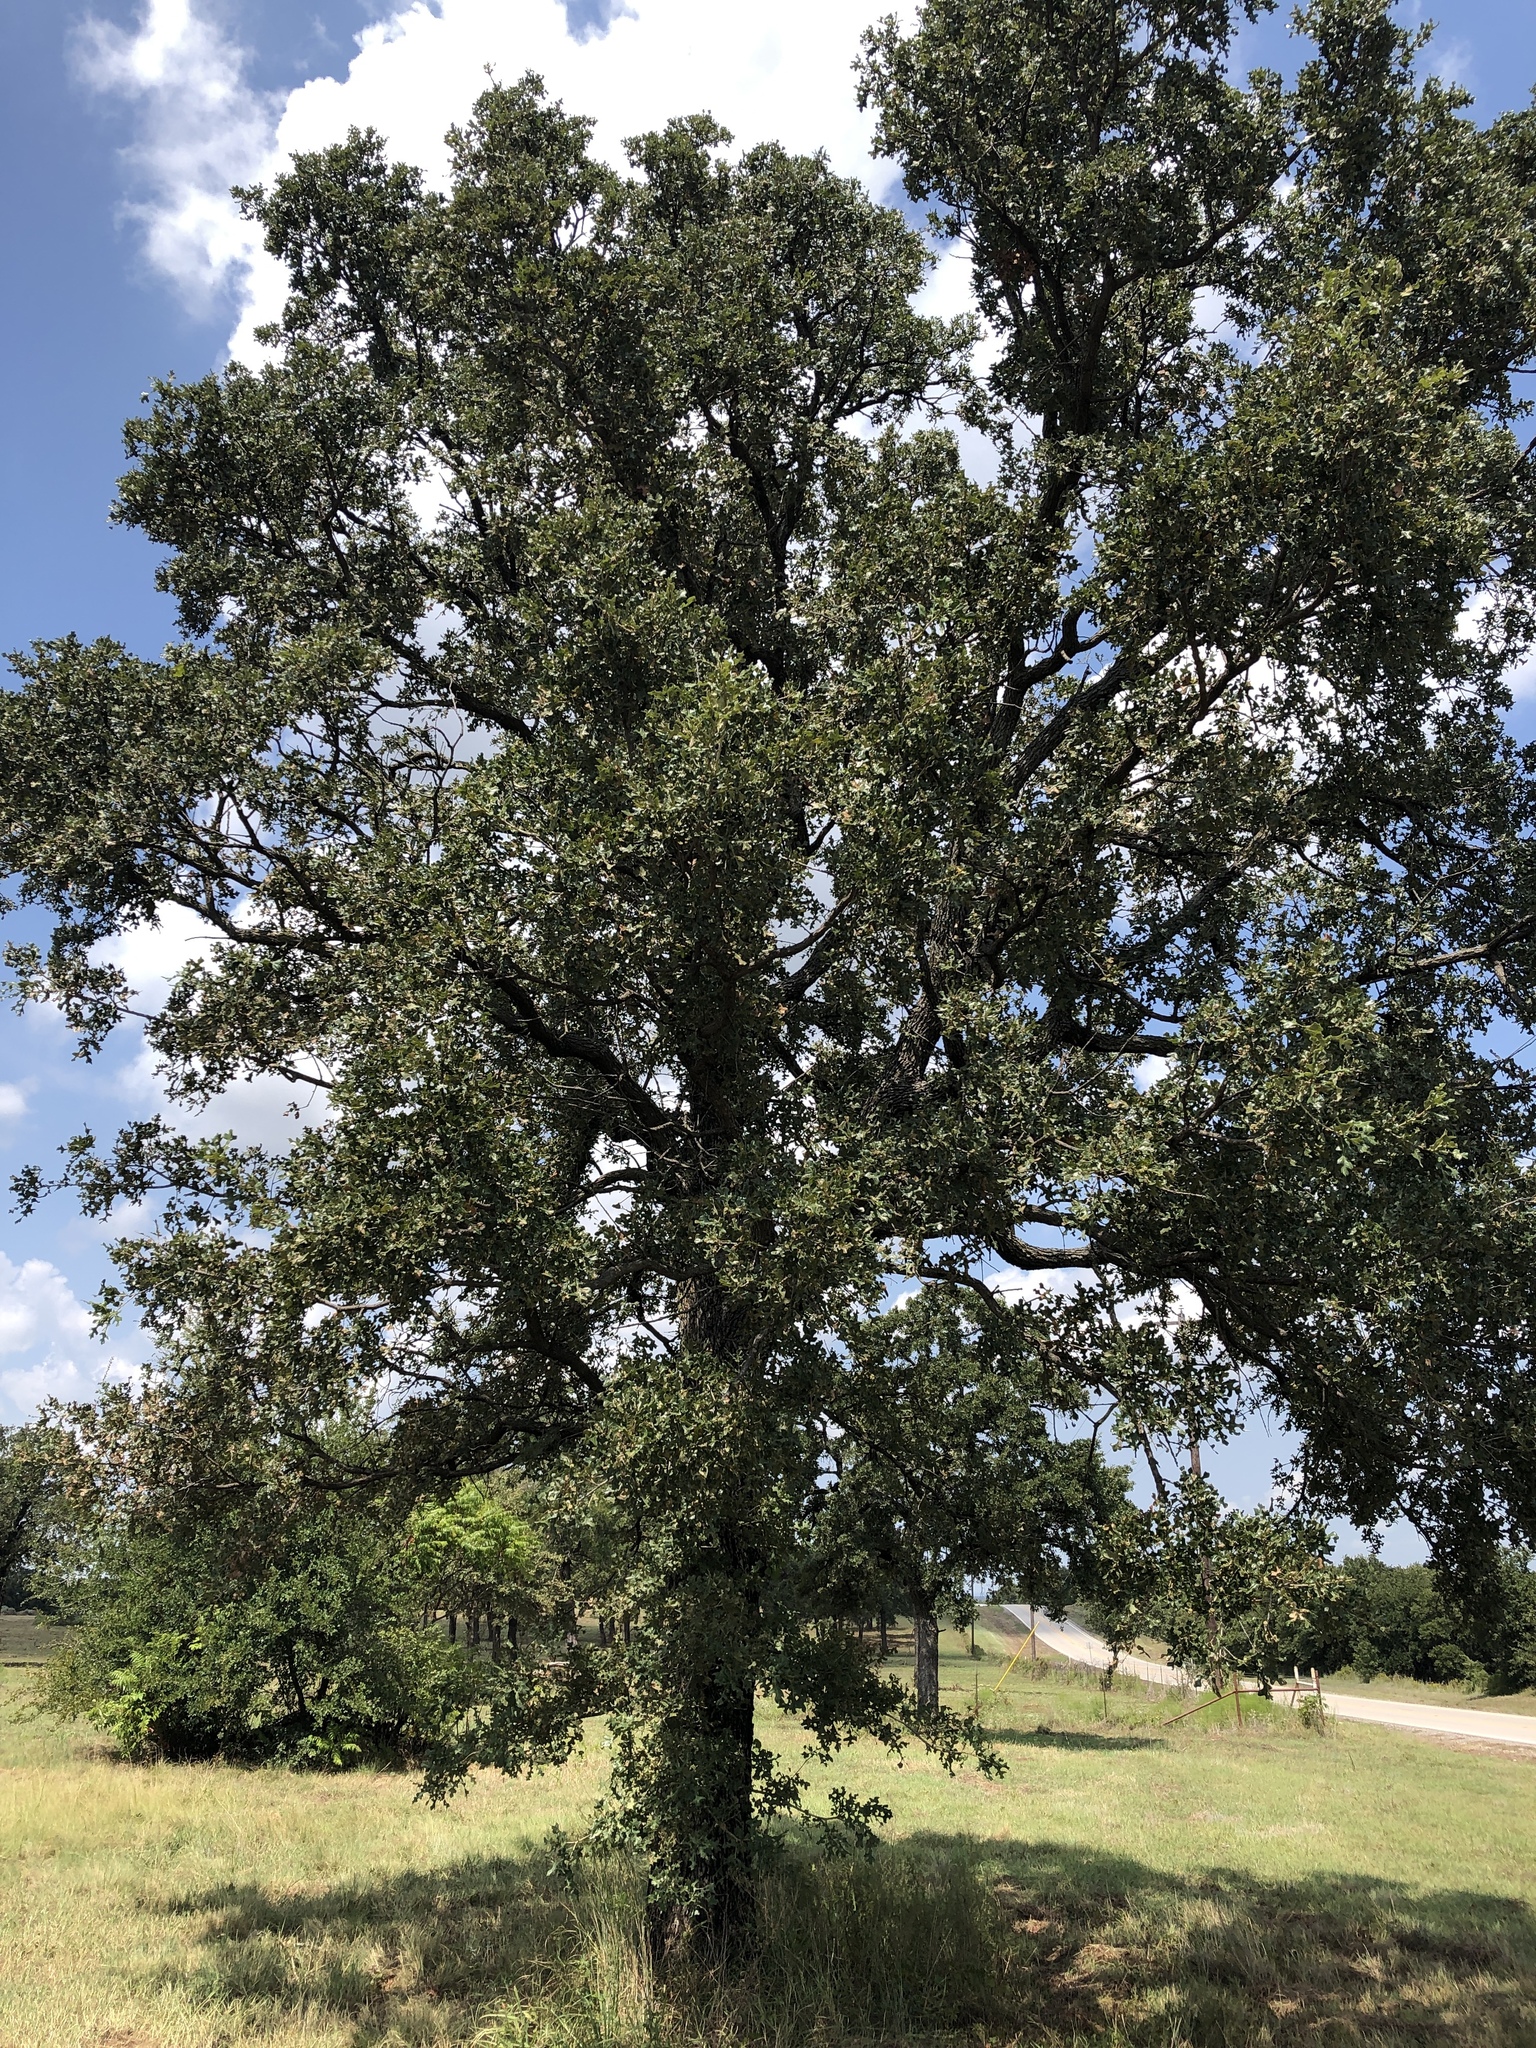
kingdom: Plantae
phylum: Tracheophyta
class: Magnoliopsida
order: Fagales
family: Fagaceae
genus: Quercus
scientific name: Quercus stellata
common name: Post oak
